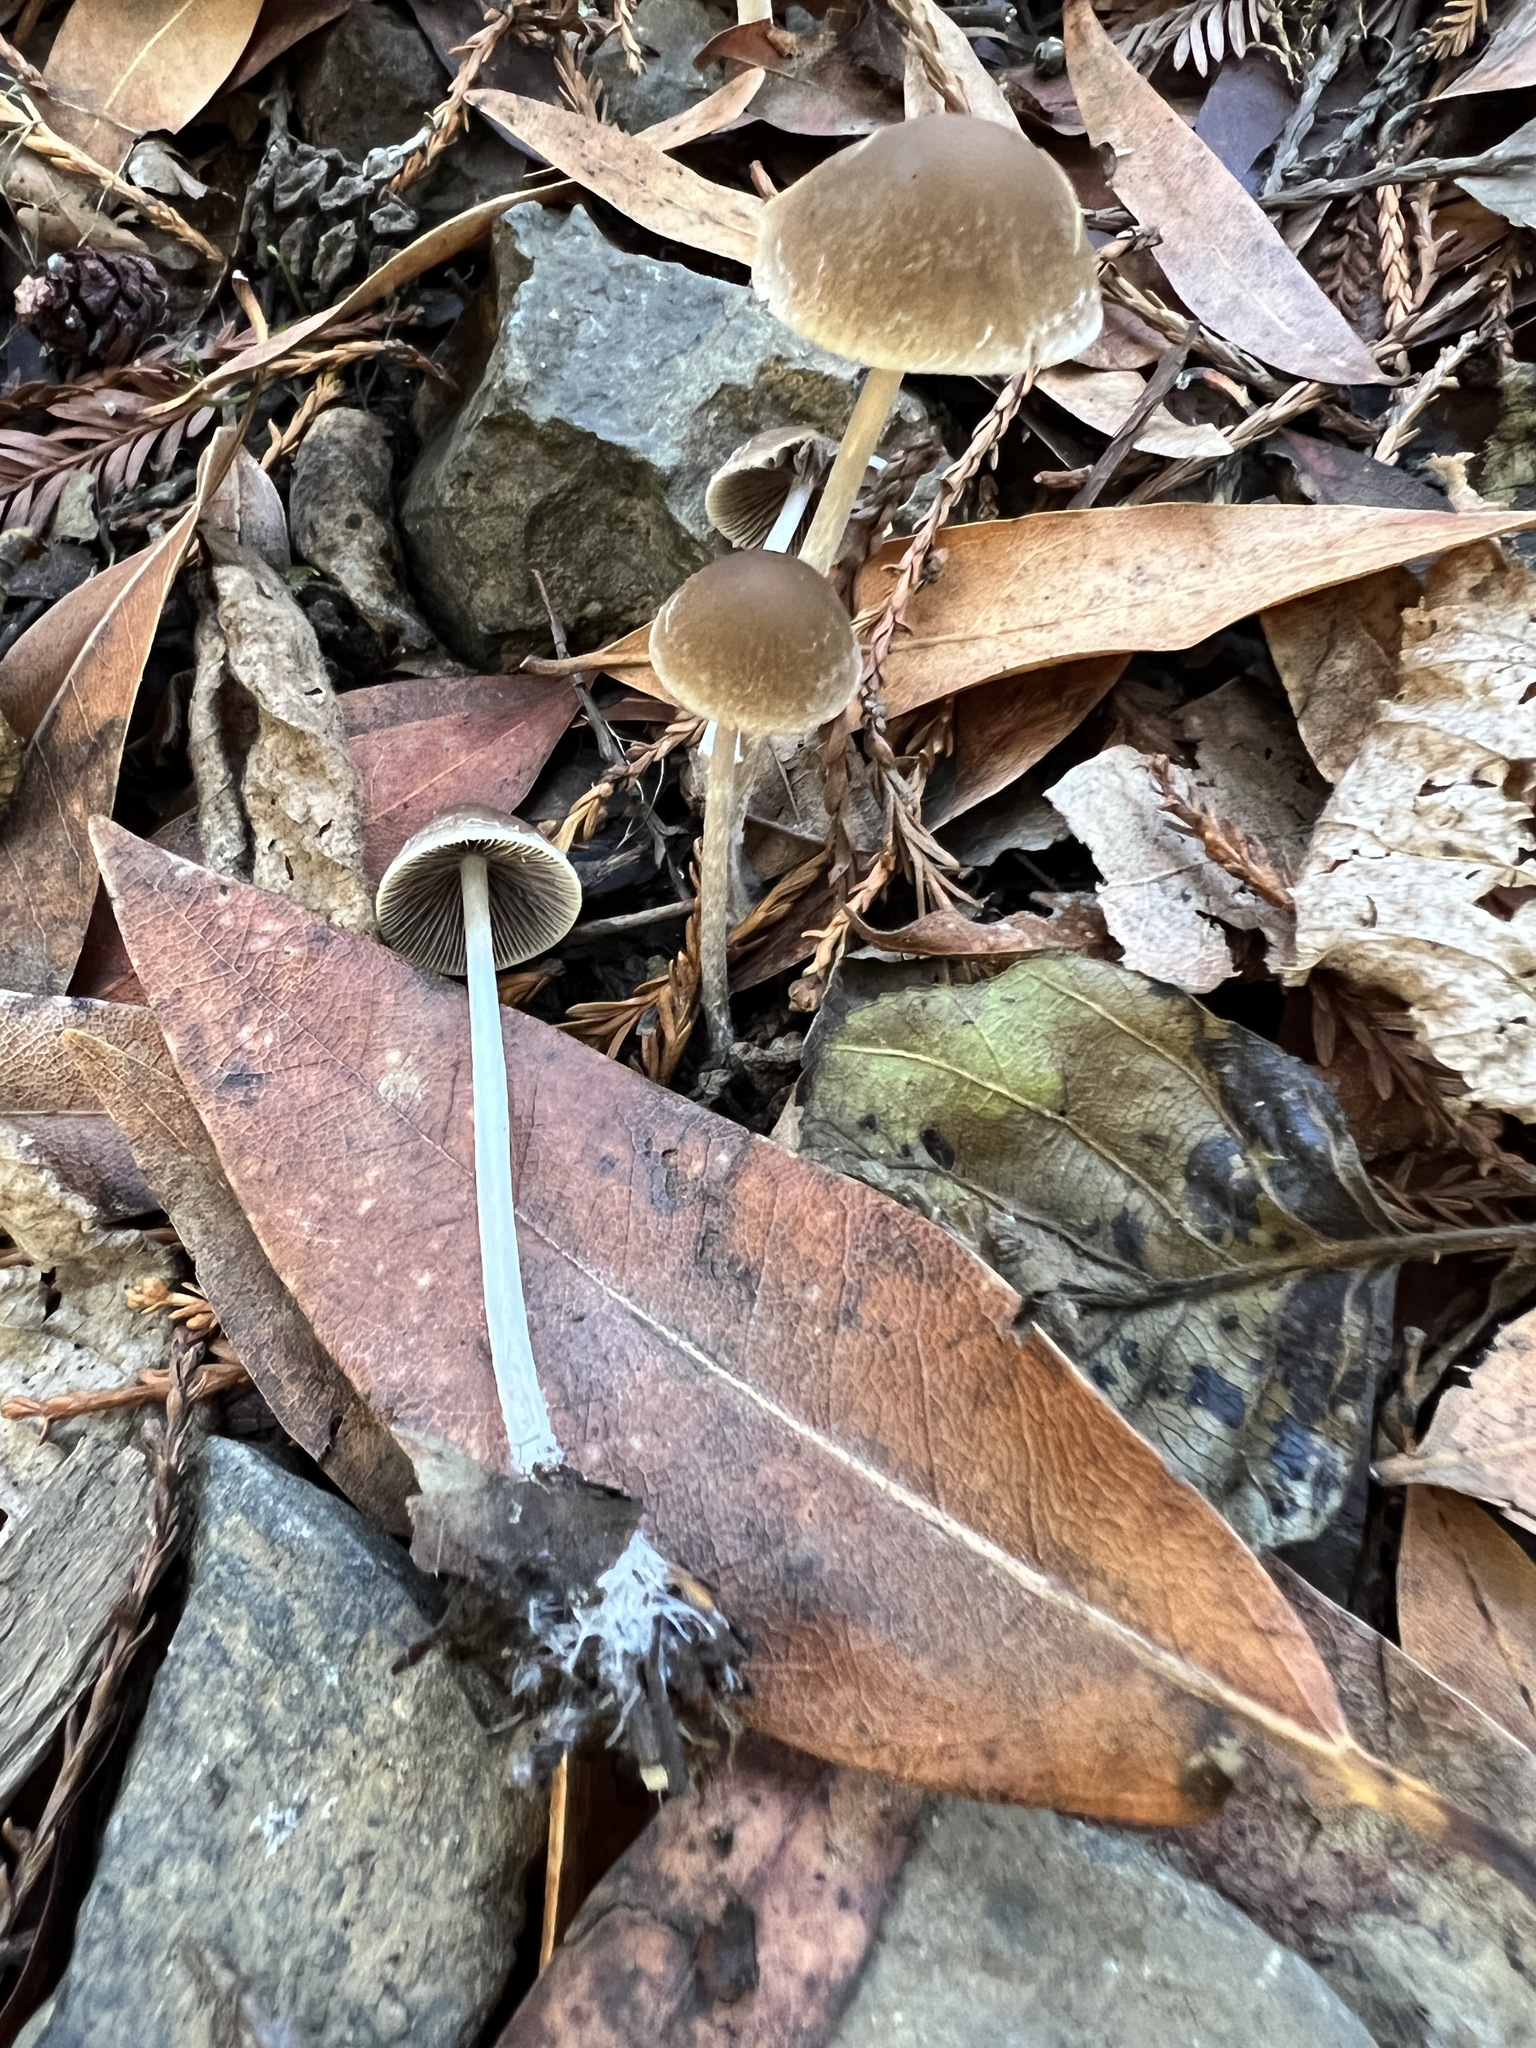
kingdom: Fungi
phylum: Basidiomycota
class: Agaricomycetes
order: Agaricales
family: Psathyrellaceae
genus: Psathyrella
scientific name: Psathyrella corrugis
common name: Red edge brittlestem
